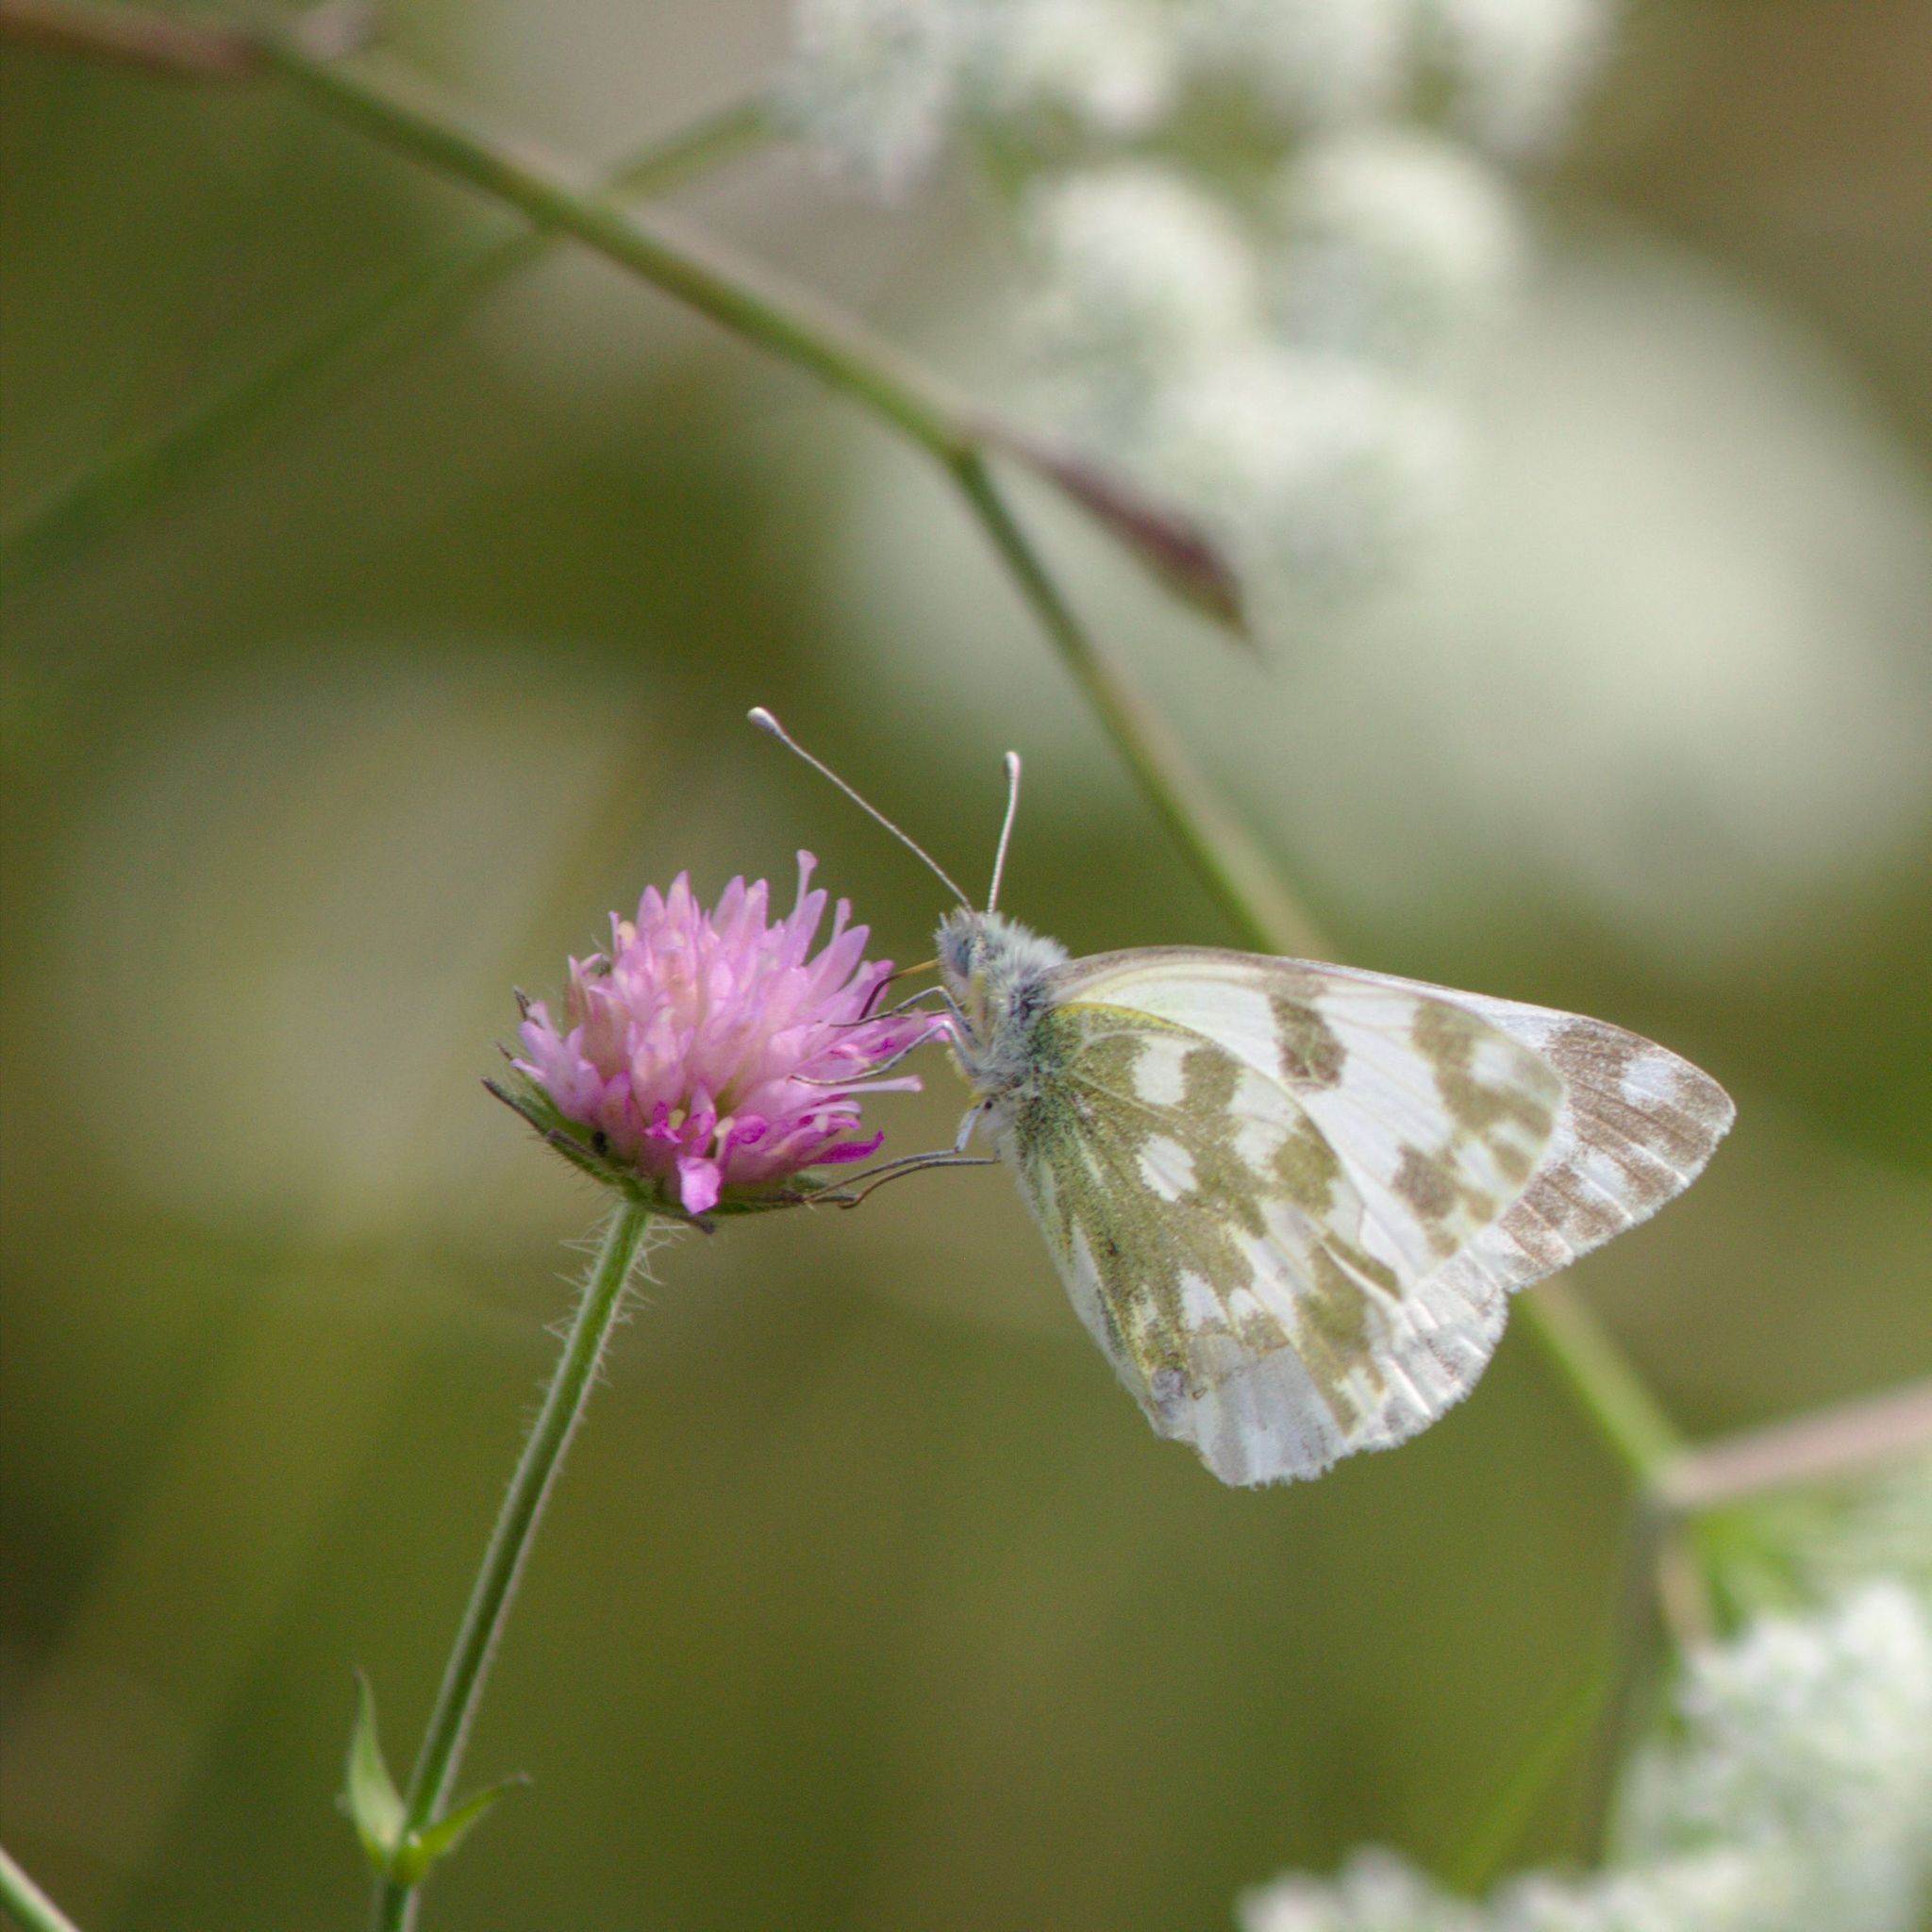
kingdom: Animalia
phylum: Arthropoda
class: Insecta
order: Lepidoptera
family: Pieridae
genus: Pontia
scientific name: Pontia edusa
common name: Eastern bath white
